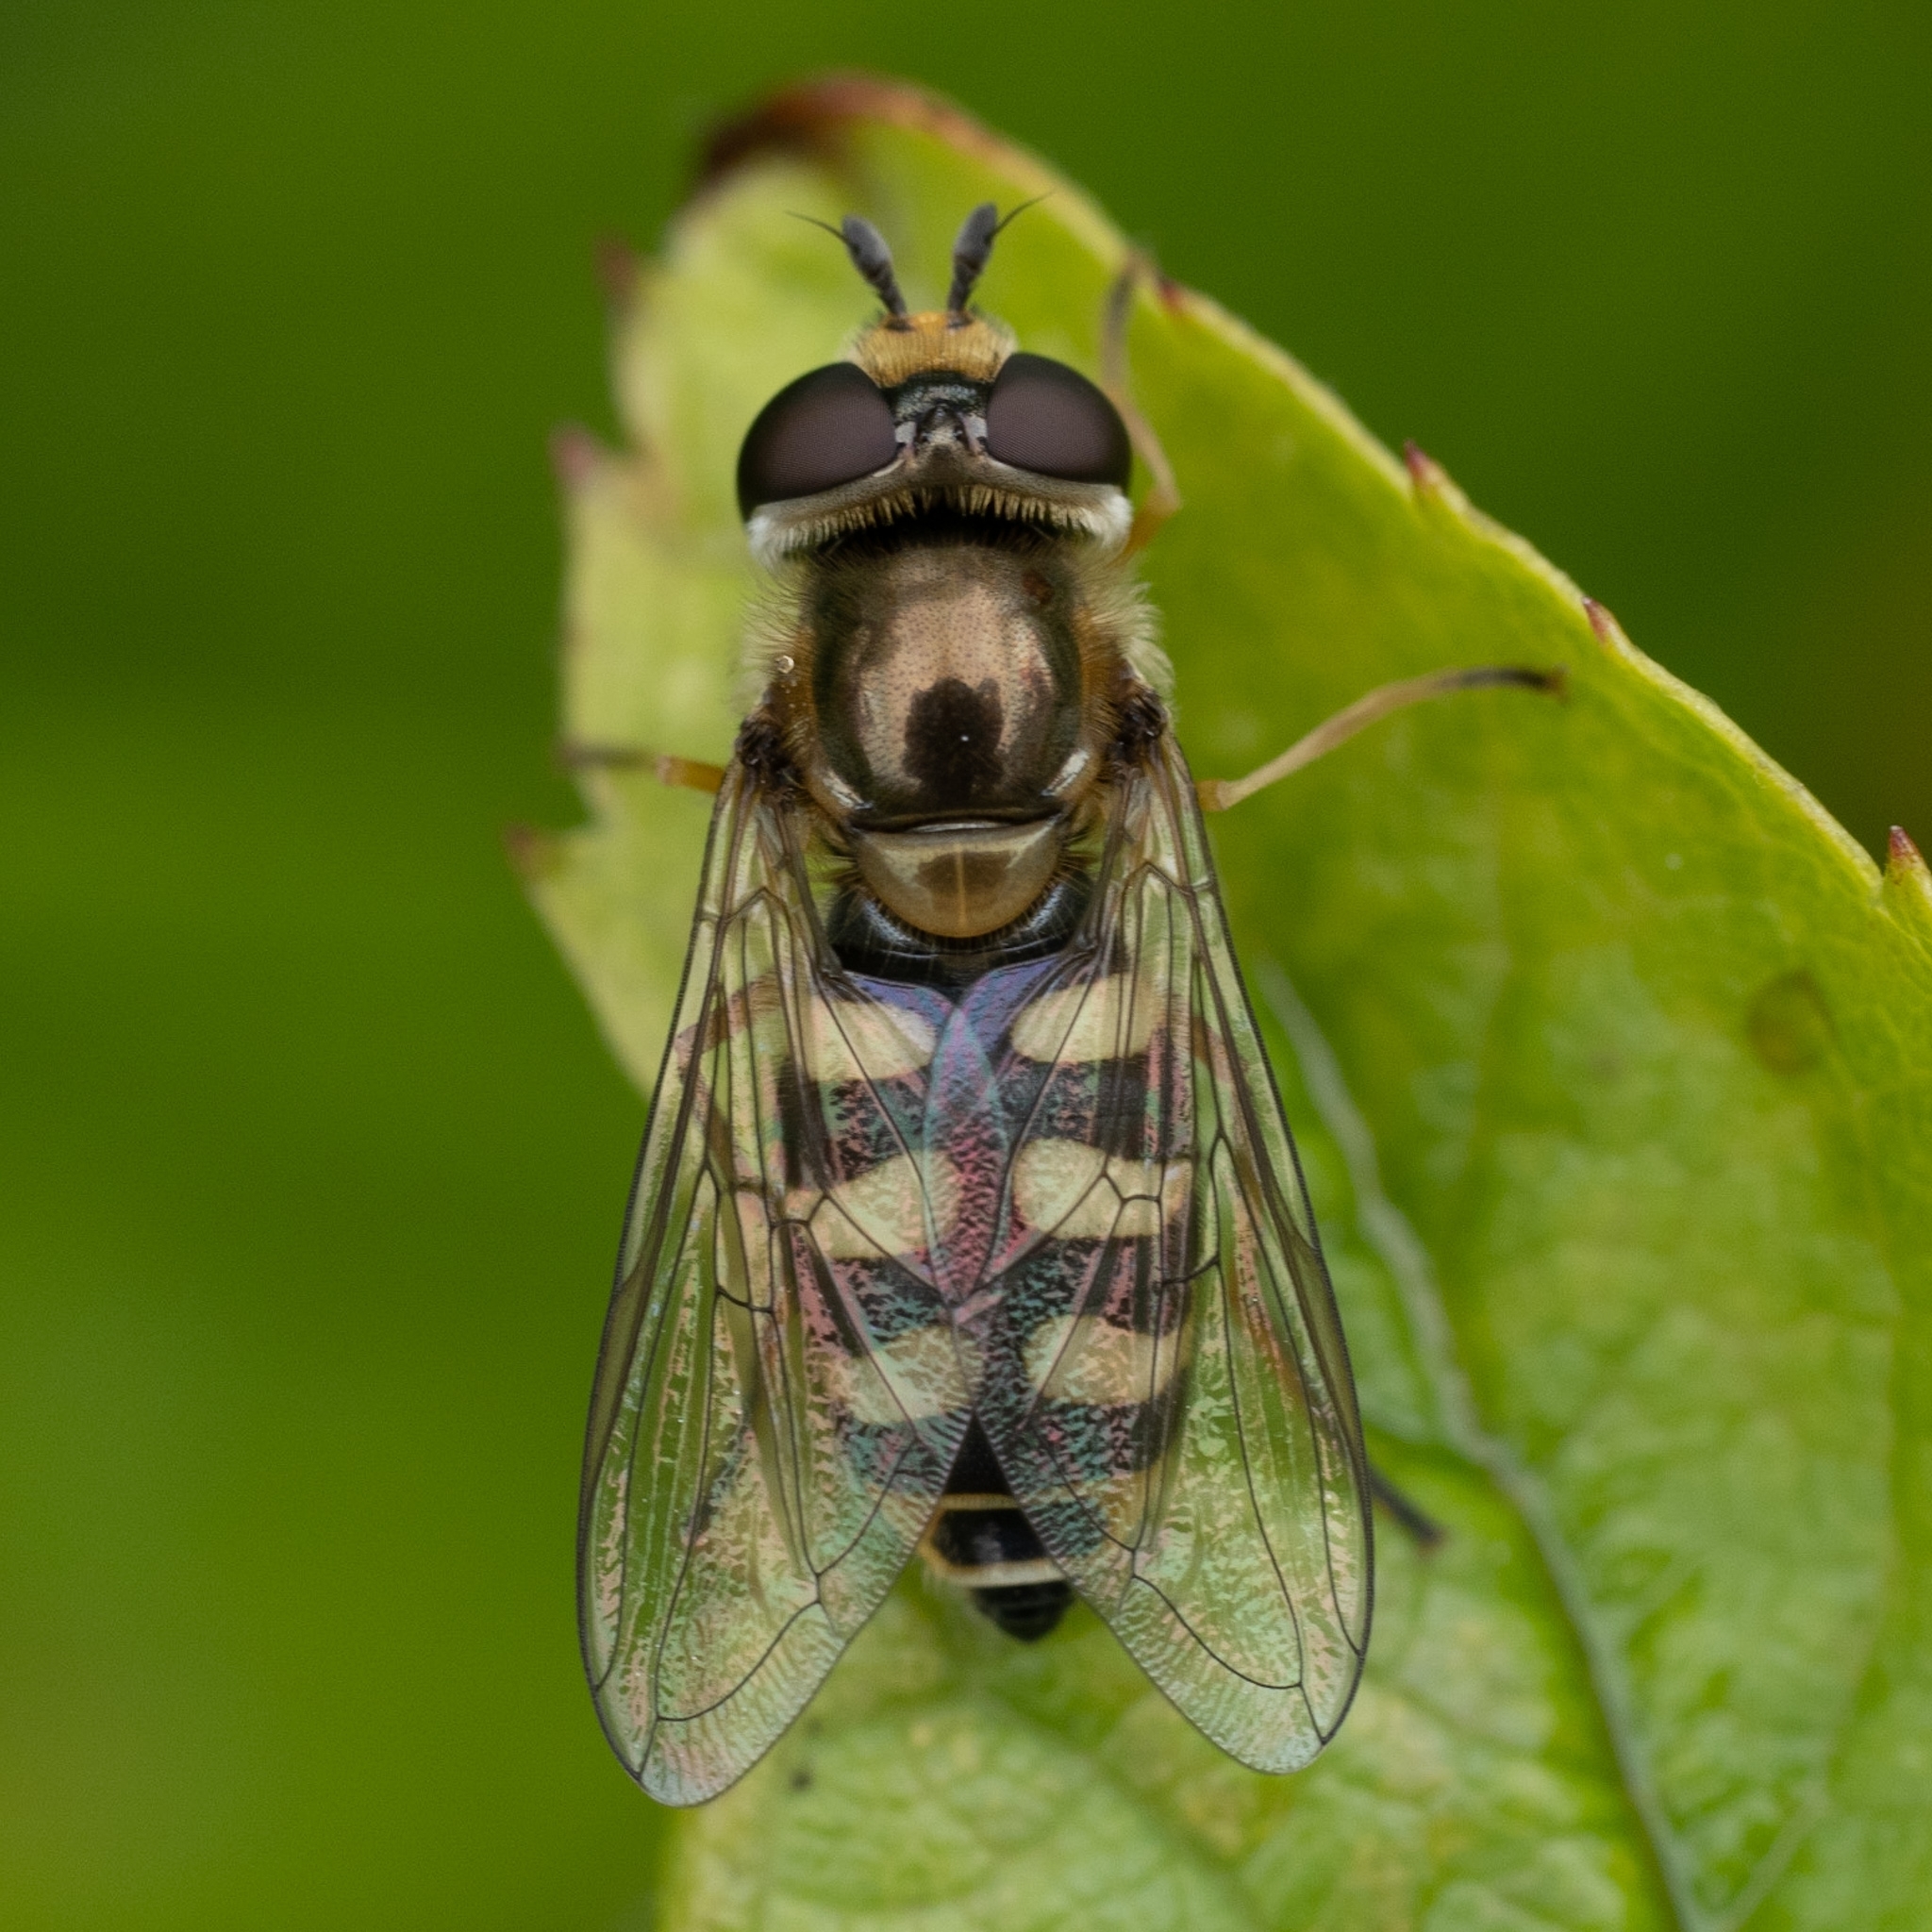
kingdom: Animalia
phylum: Arthropoda
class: Insecta
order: Diptera
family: Syrphidae
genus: Eupeodes
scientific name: Eupeodes corollae
